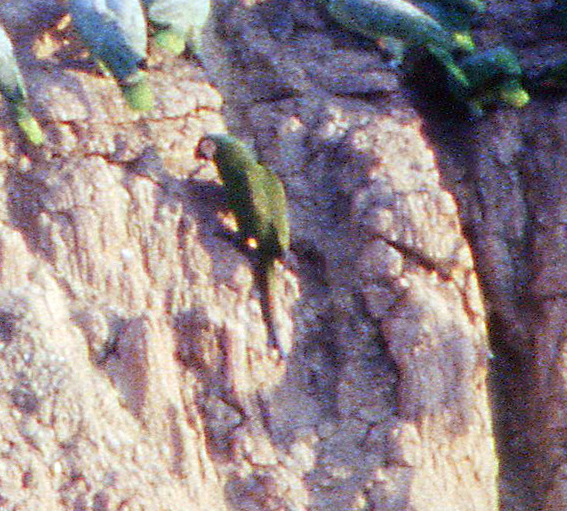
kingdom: Animalia
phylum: Chordata
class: Aves
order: Psittaciformes
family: Psittacidae
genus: Ara
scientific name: Ara severus
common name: Chestnut-fronted macaw
